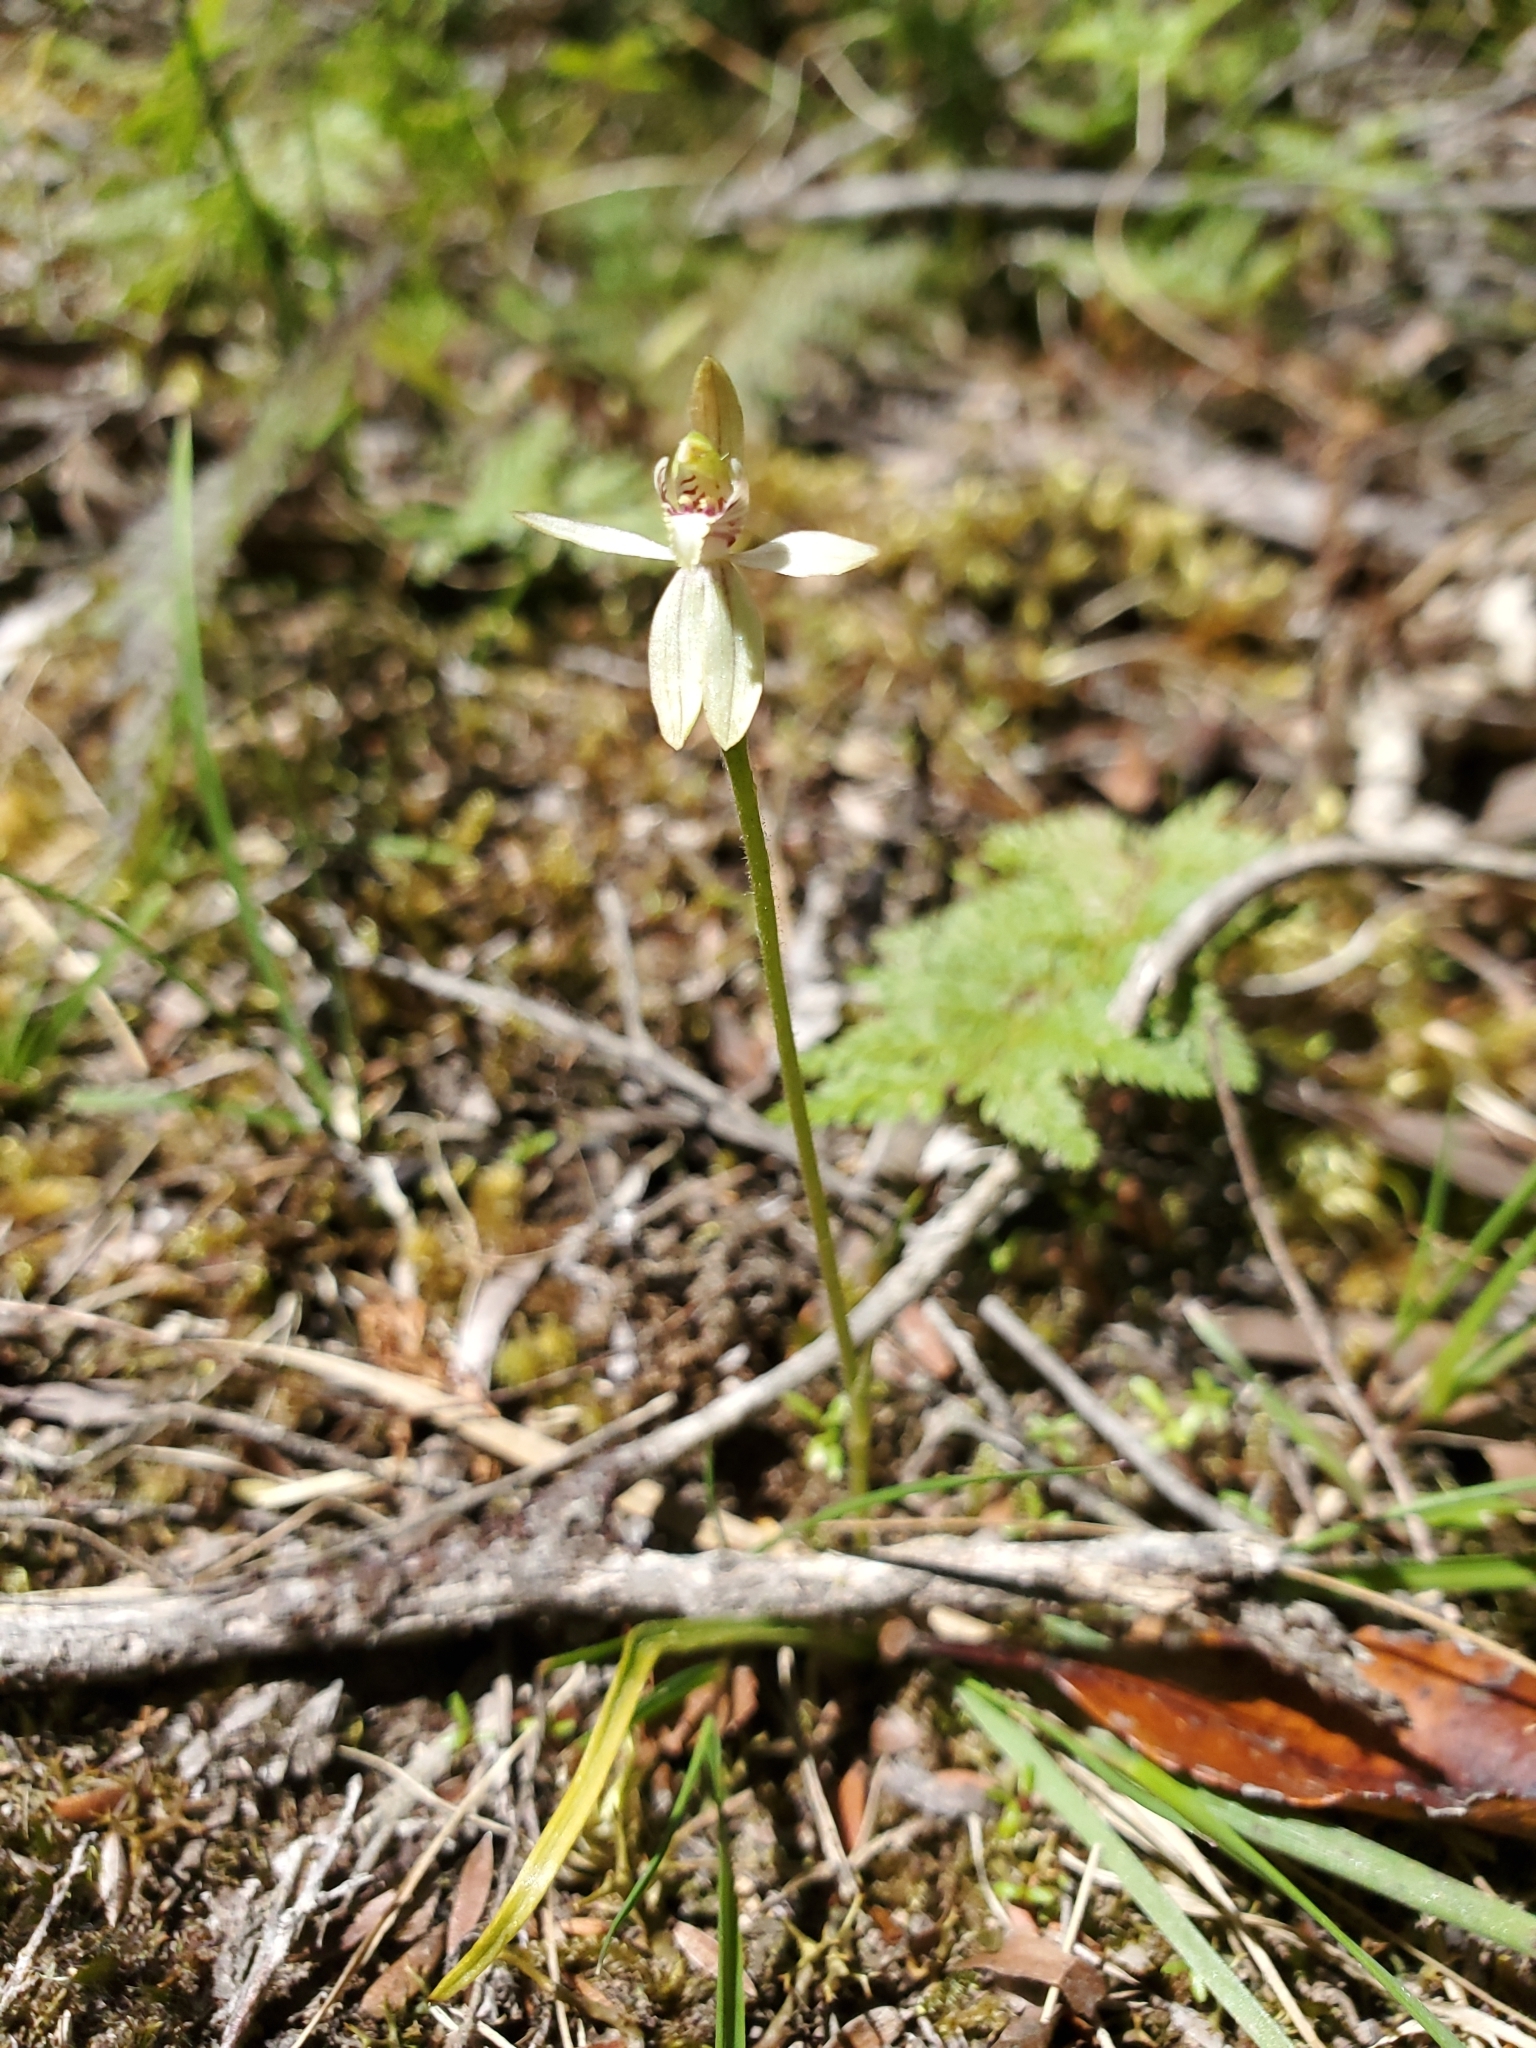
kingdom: Plantae
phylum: Tracheophyta
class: Liliopsida
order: Asparagales
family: Orchidaceae
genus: Caladenia
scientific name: Caladenia chlorostyla
